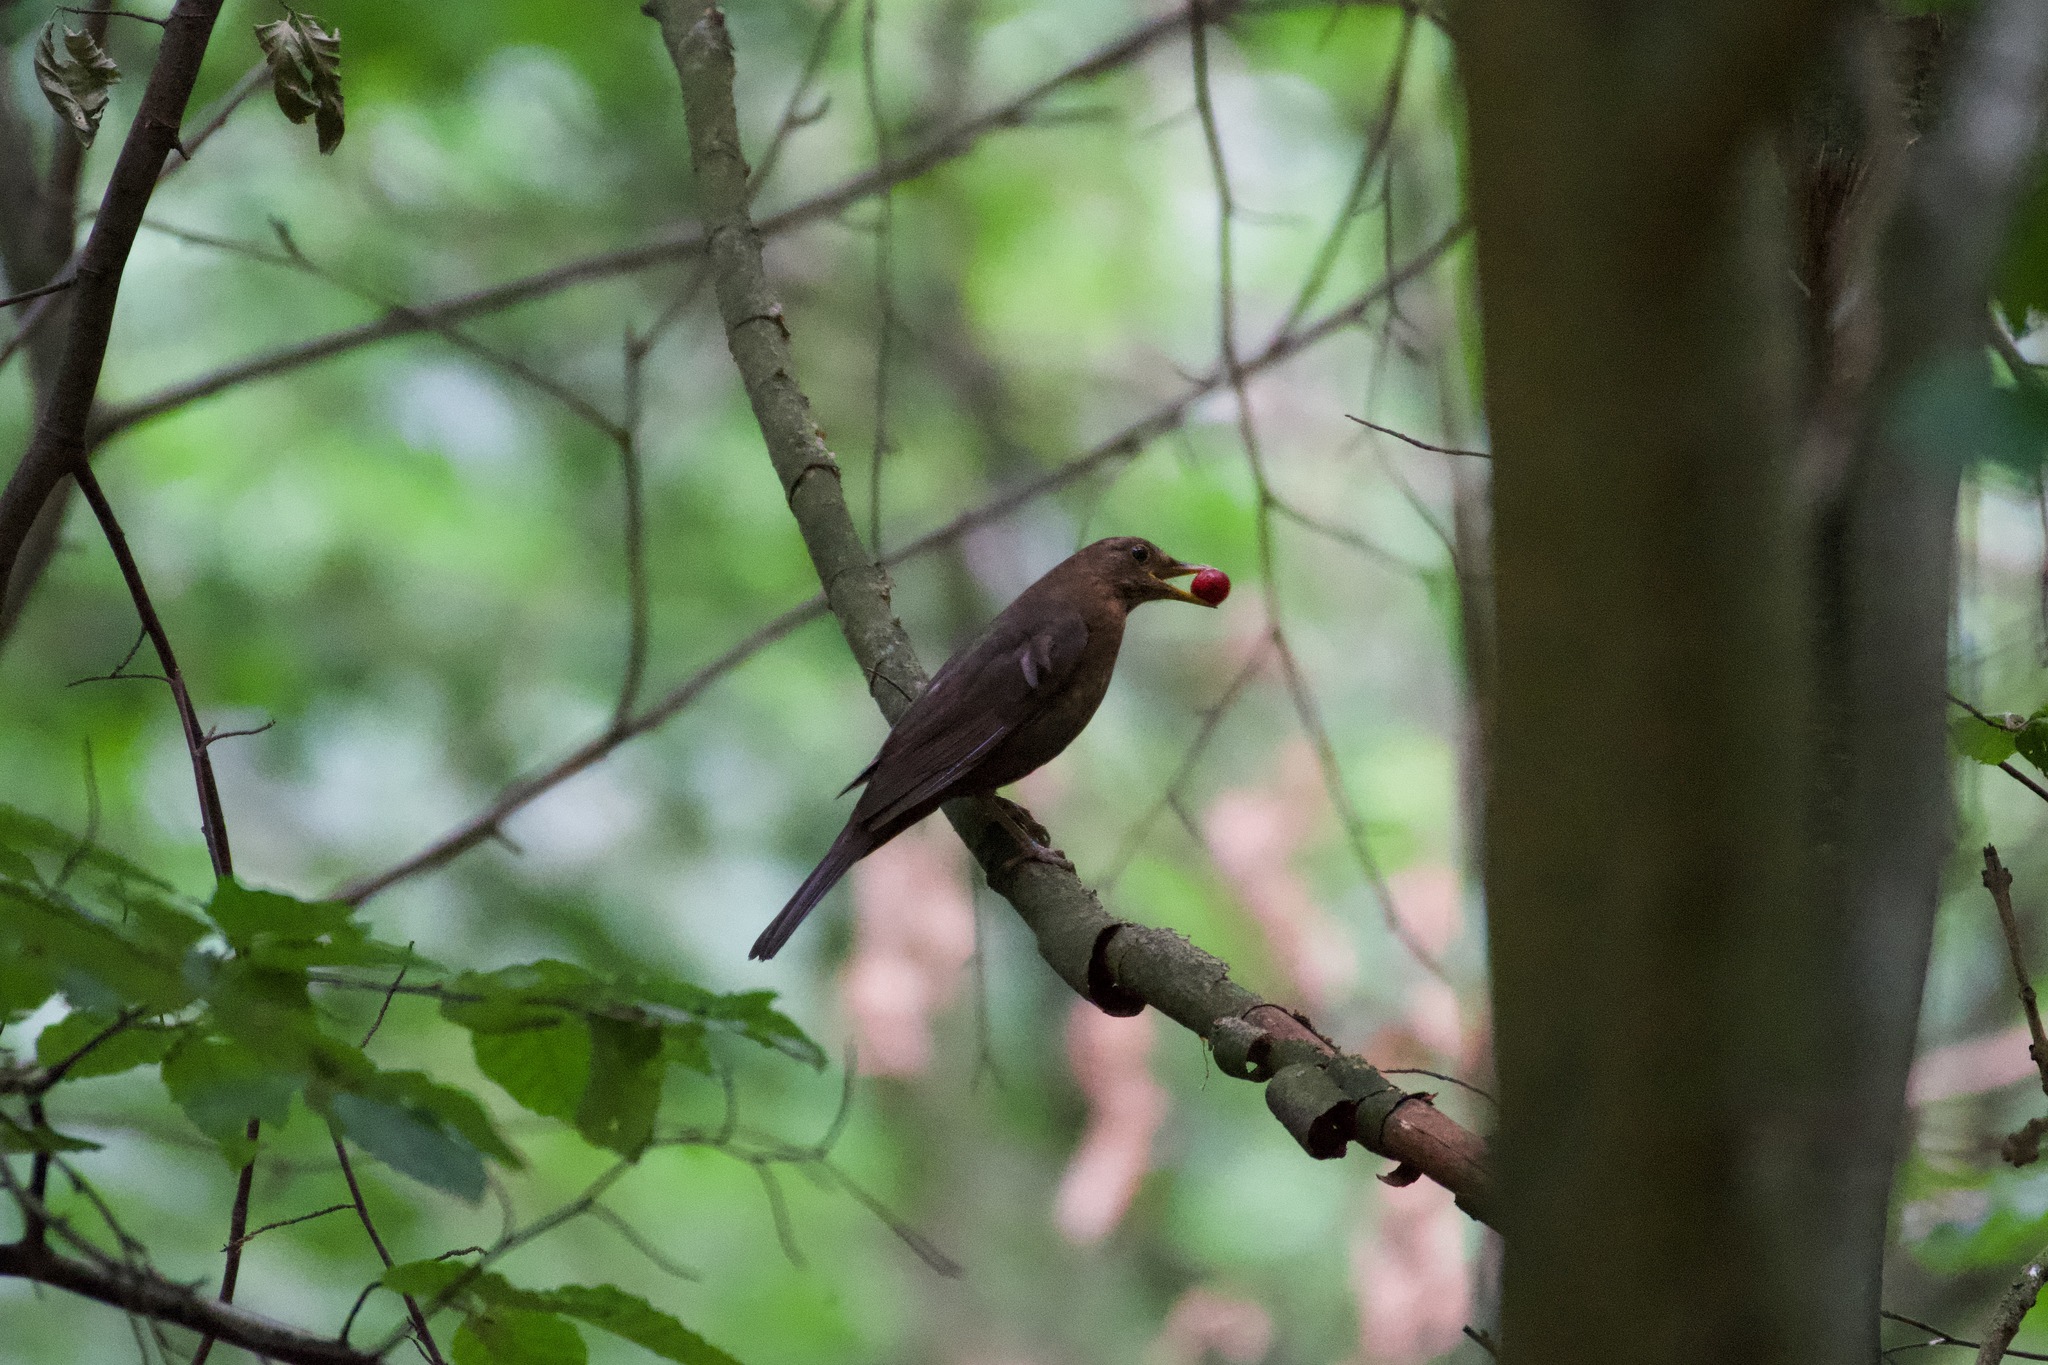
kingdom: Animalia
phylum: Chordata
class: Aves
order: Passeriformes
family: Turdidae
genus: Turdus
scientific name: Turdus merula
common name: Common blackbird
